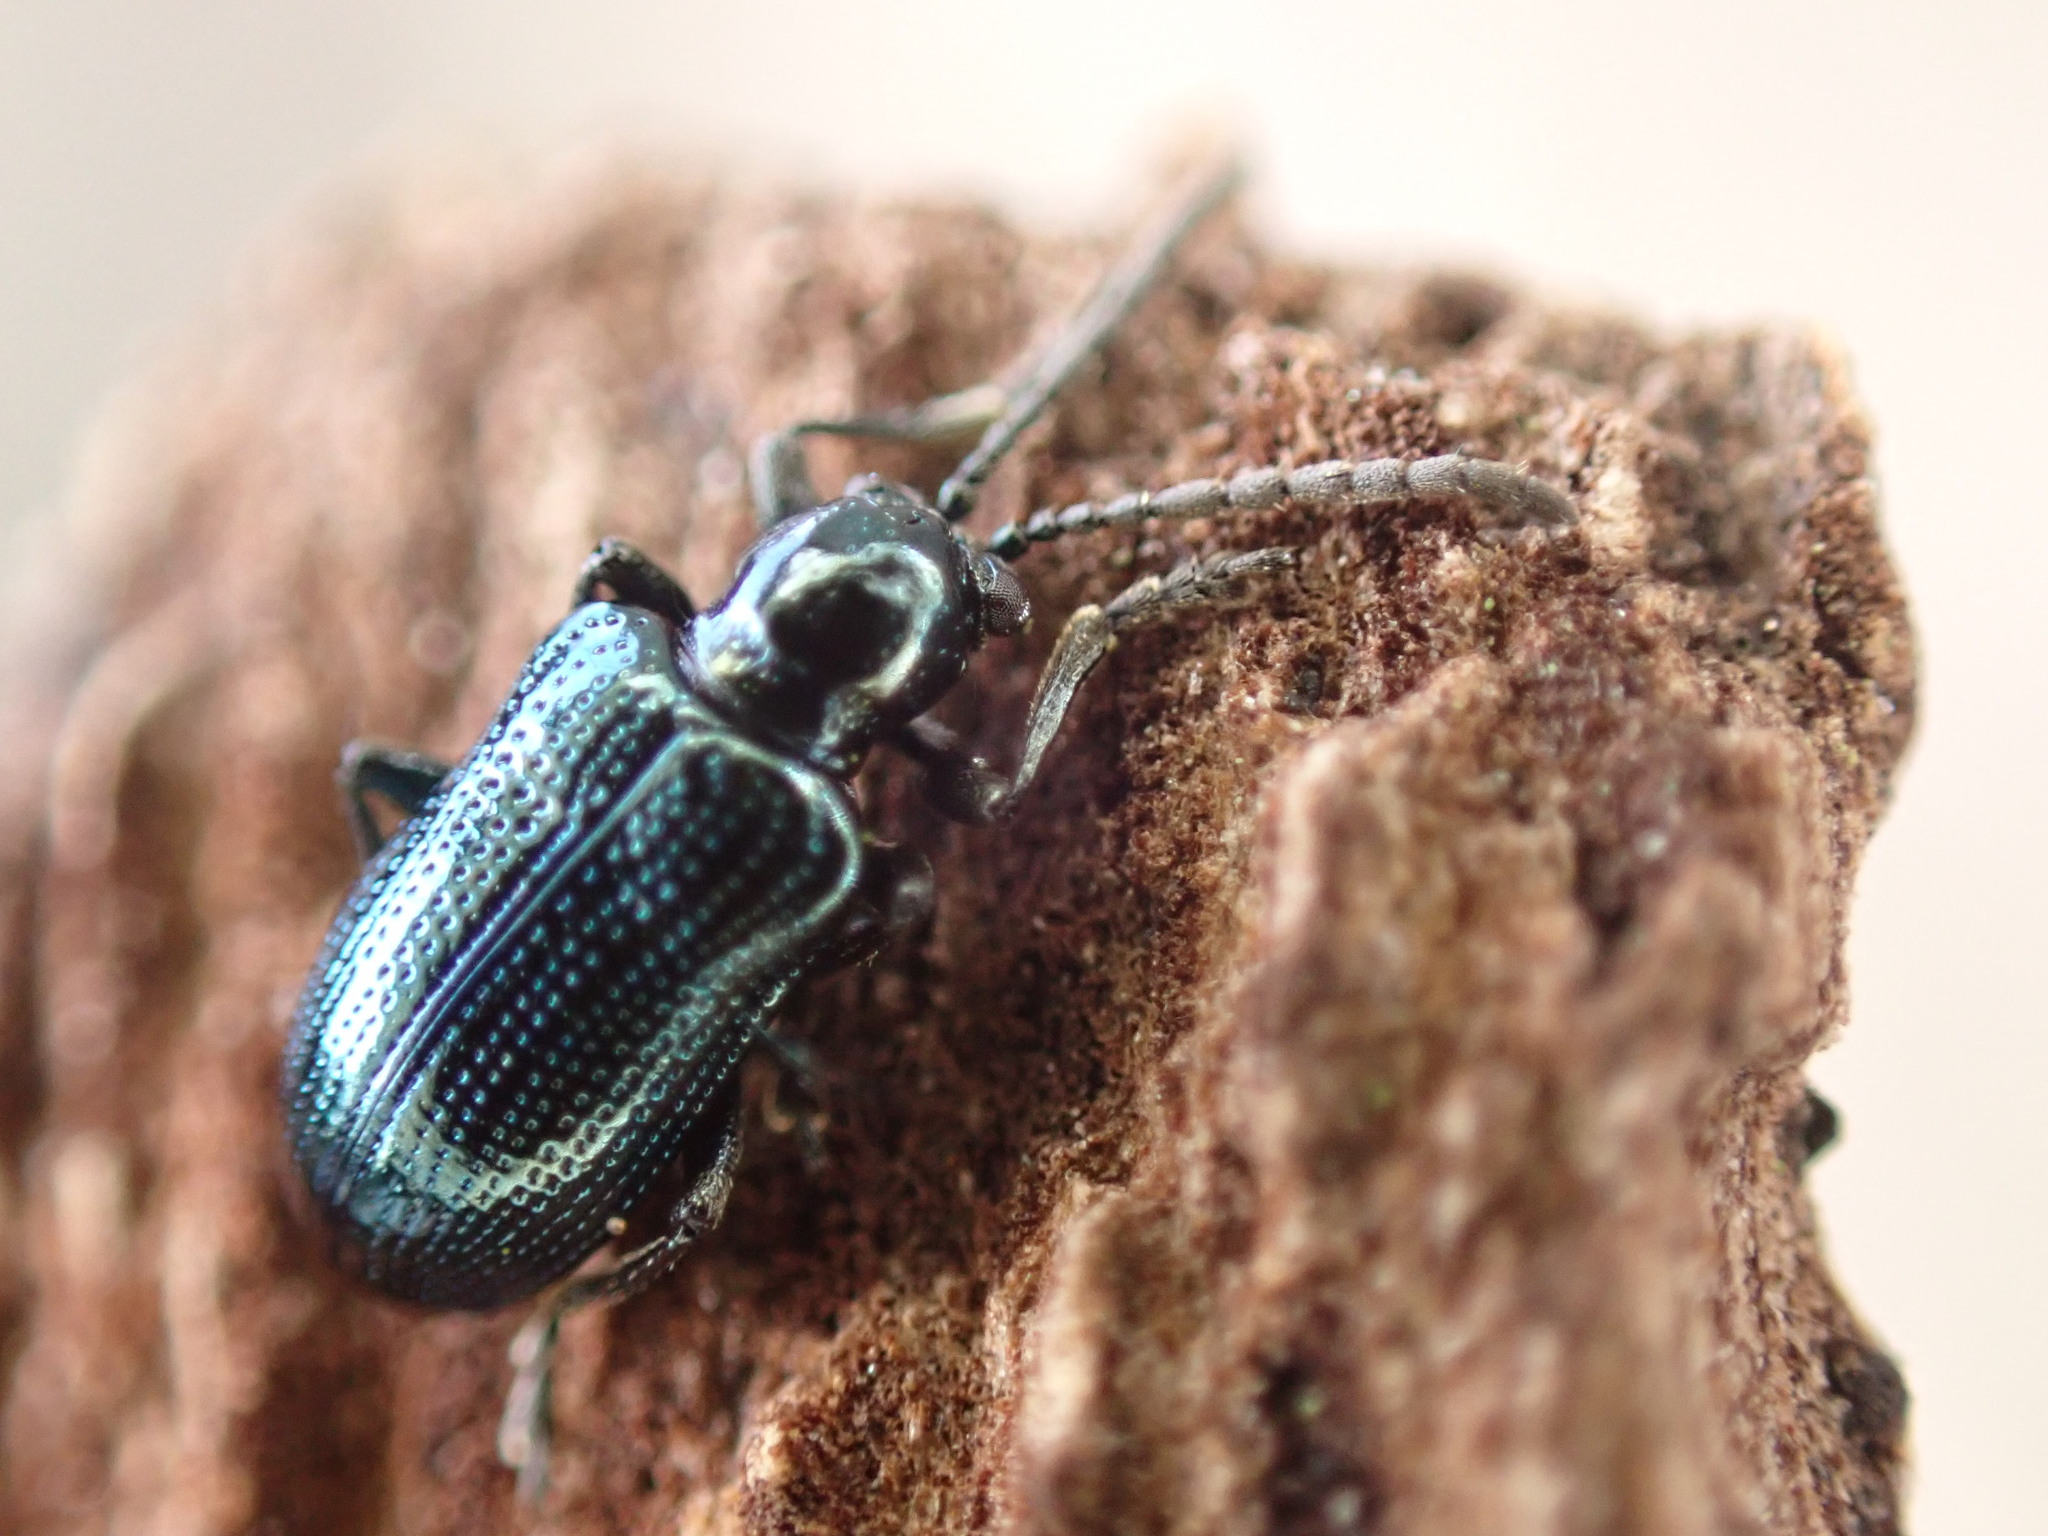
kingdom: Animalia
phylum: Arthropoda
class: Insecta
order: Coleoptera
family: Chrysomelidae
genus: Oulema
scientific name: Oulema gallaeciana
